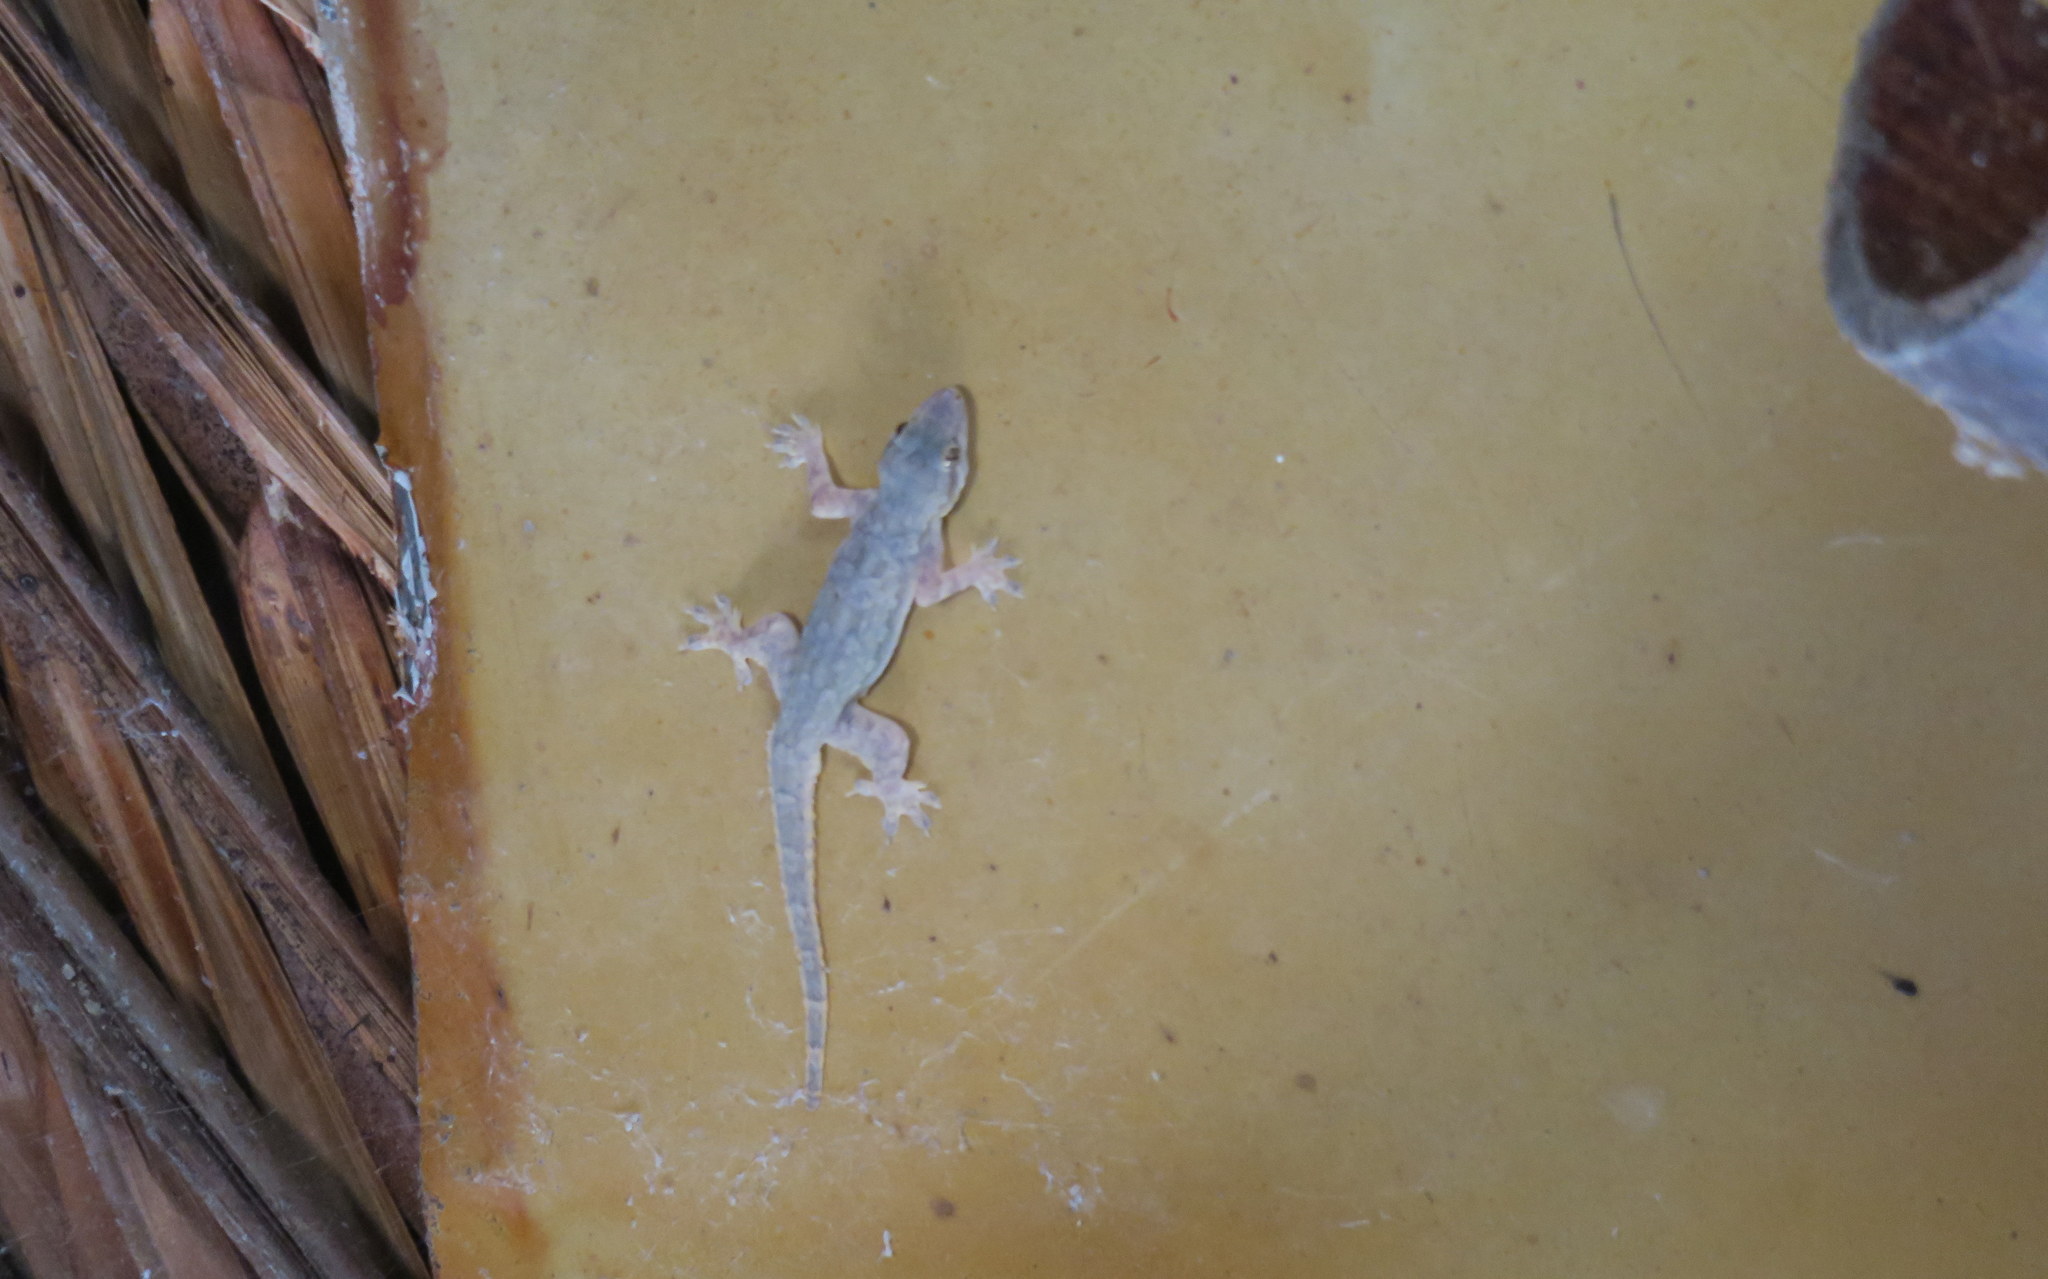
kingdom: Animalia
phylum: Chordata
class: Squamata
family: Gekkonidae
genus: Hemidactylus
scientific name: Hemidactylus platyurus
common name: Flat-tailed house gecko
